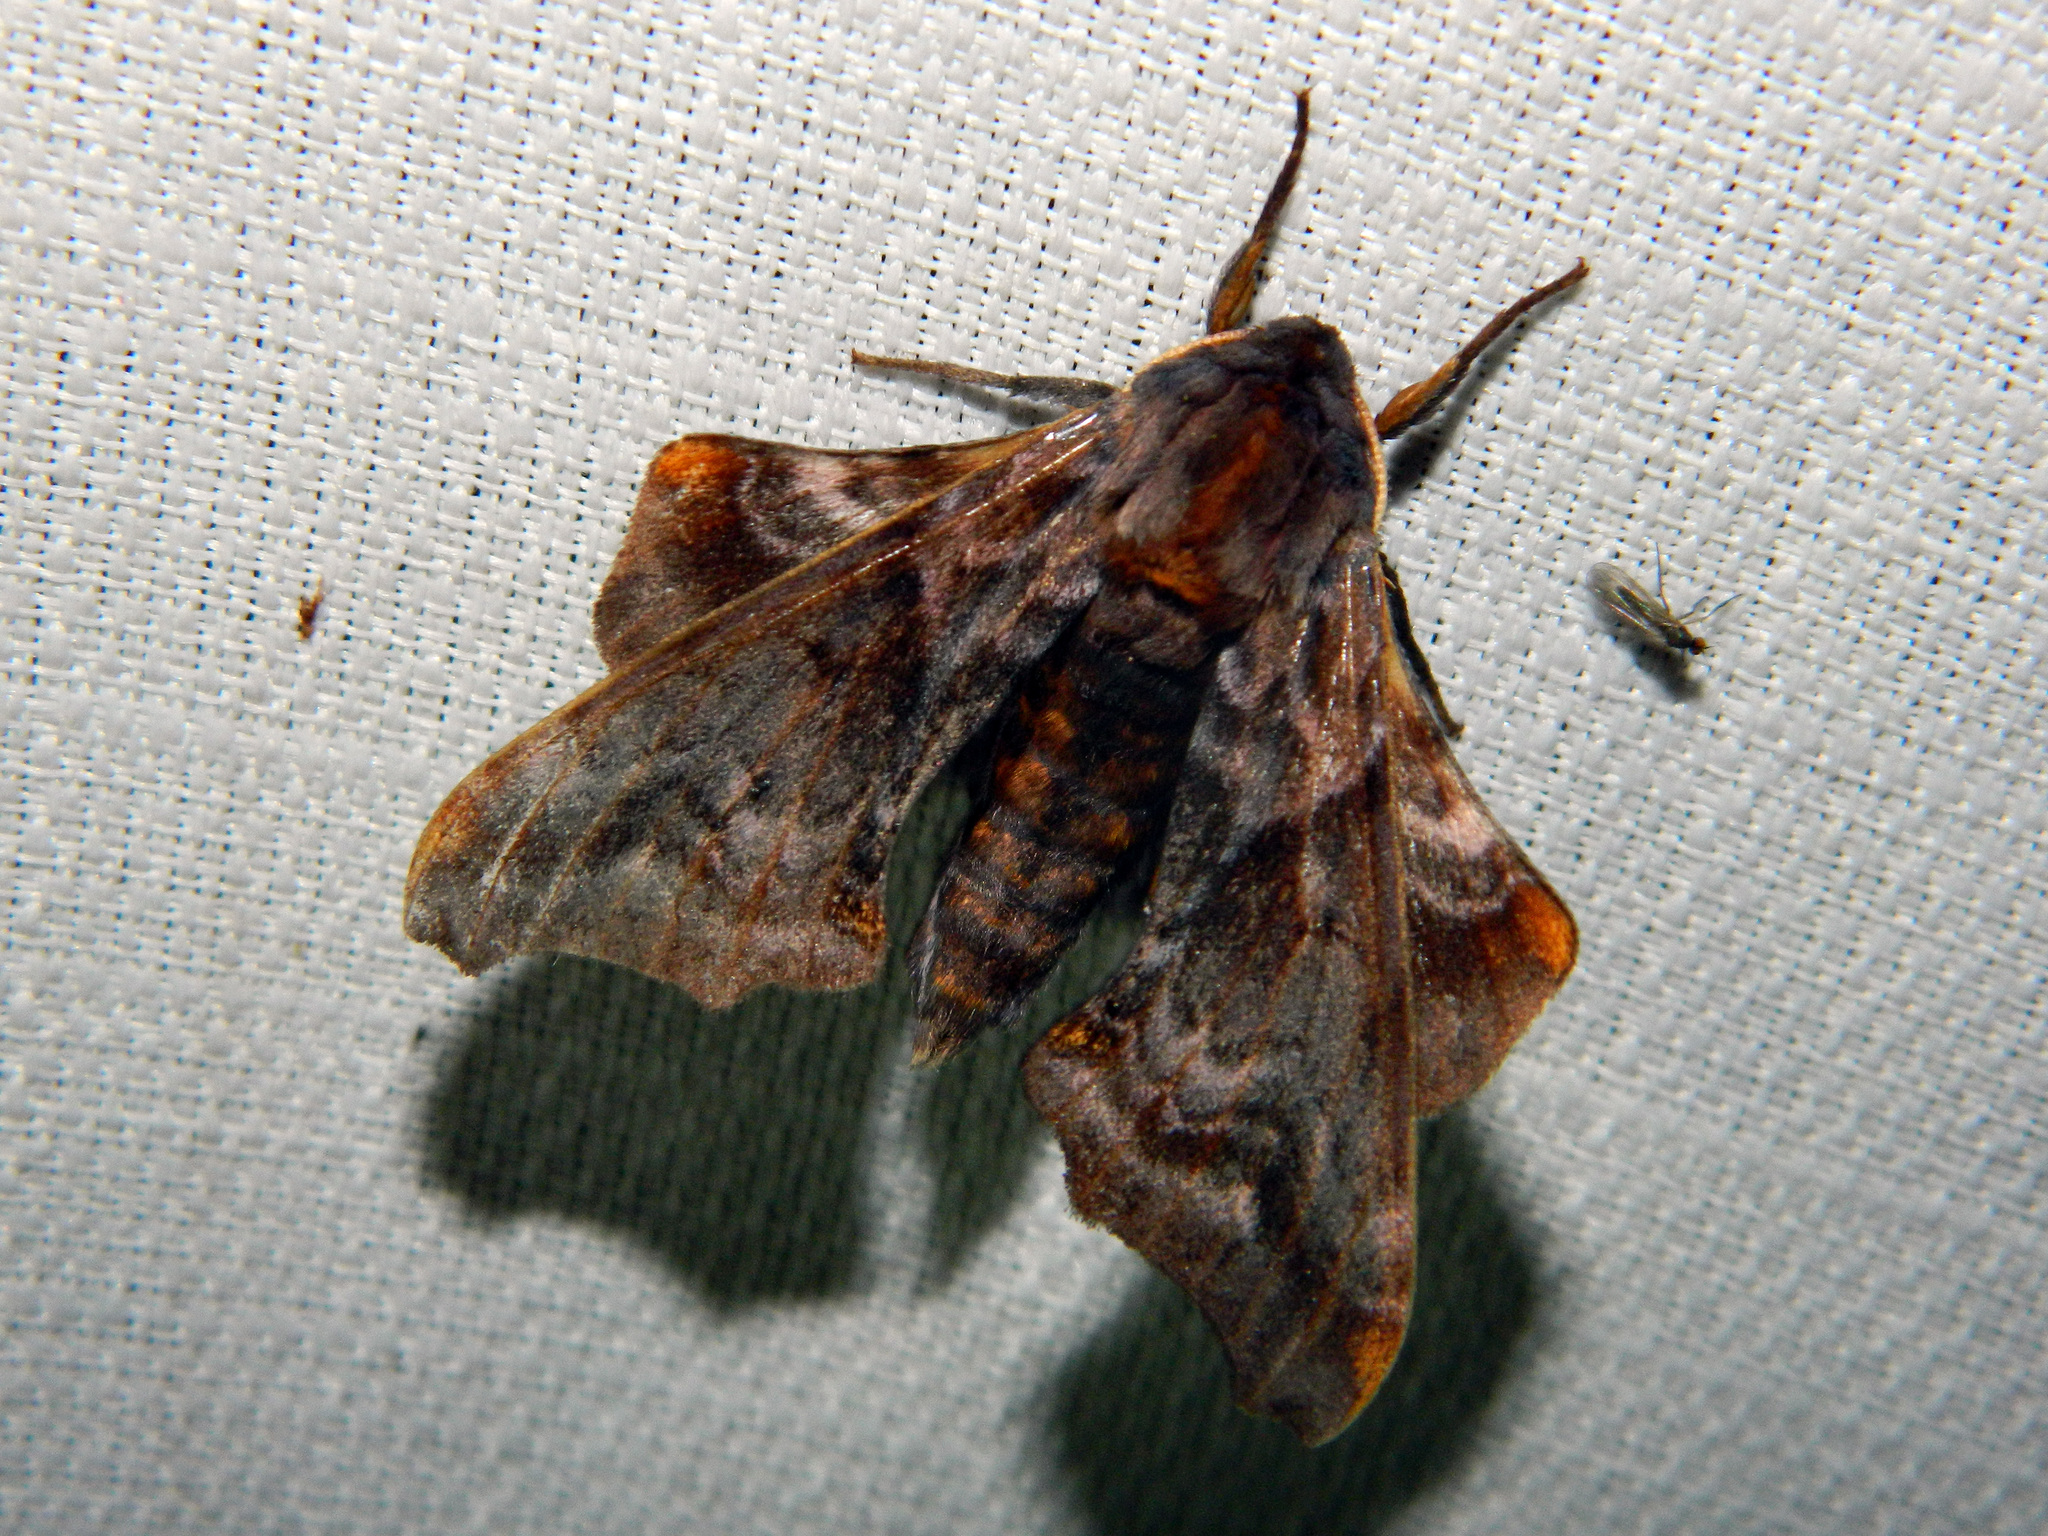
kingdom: Animalia
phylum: Arthropoda
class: Insecta
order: Lepidoptera
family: Sphingidae
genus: Paonias
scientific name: Paonias myops
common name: Small-eyed sphinx
